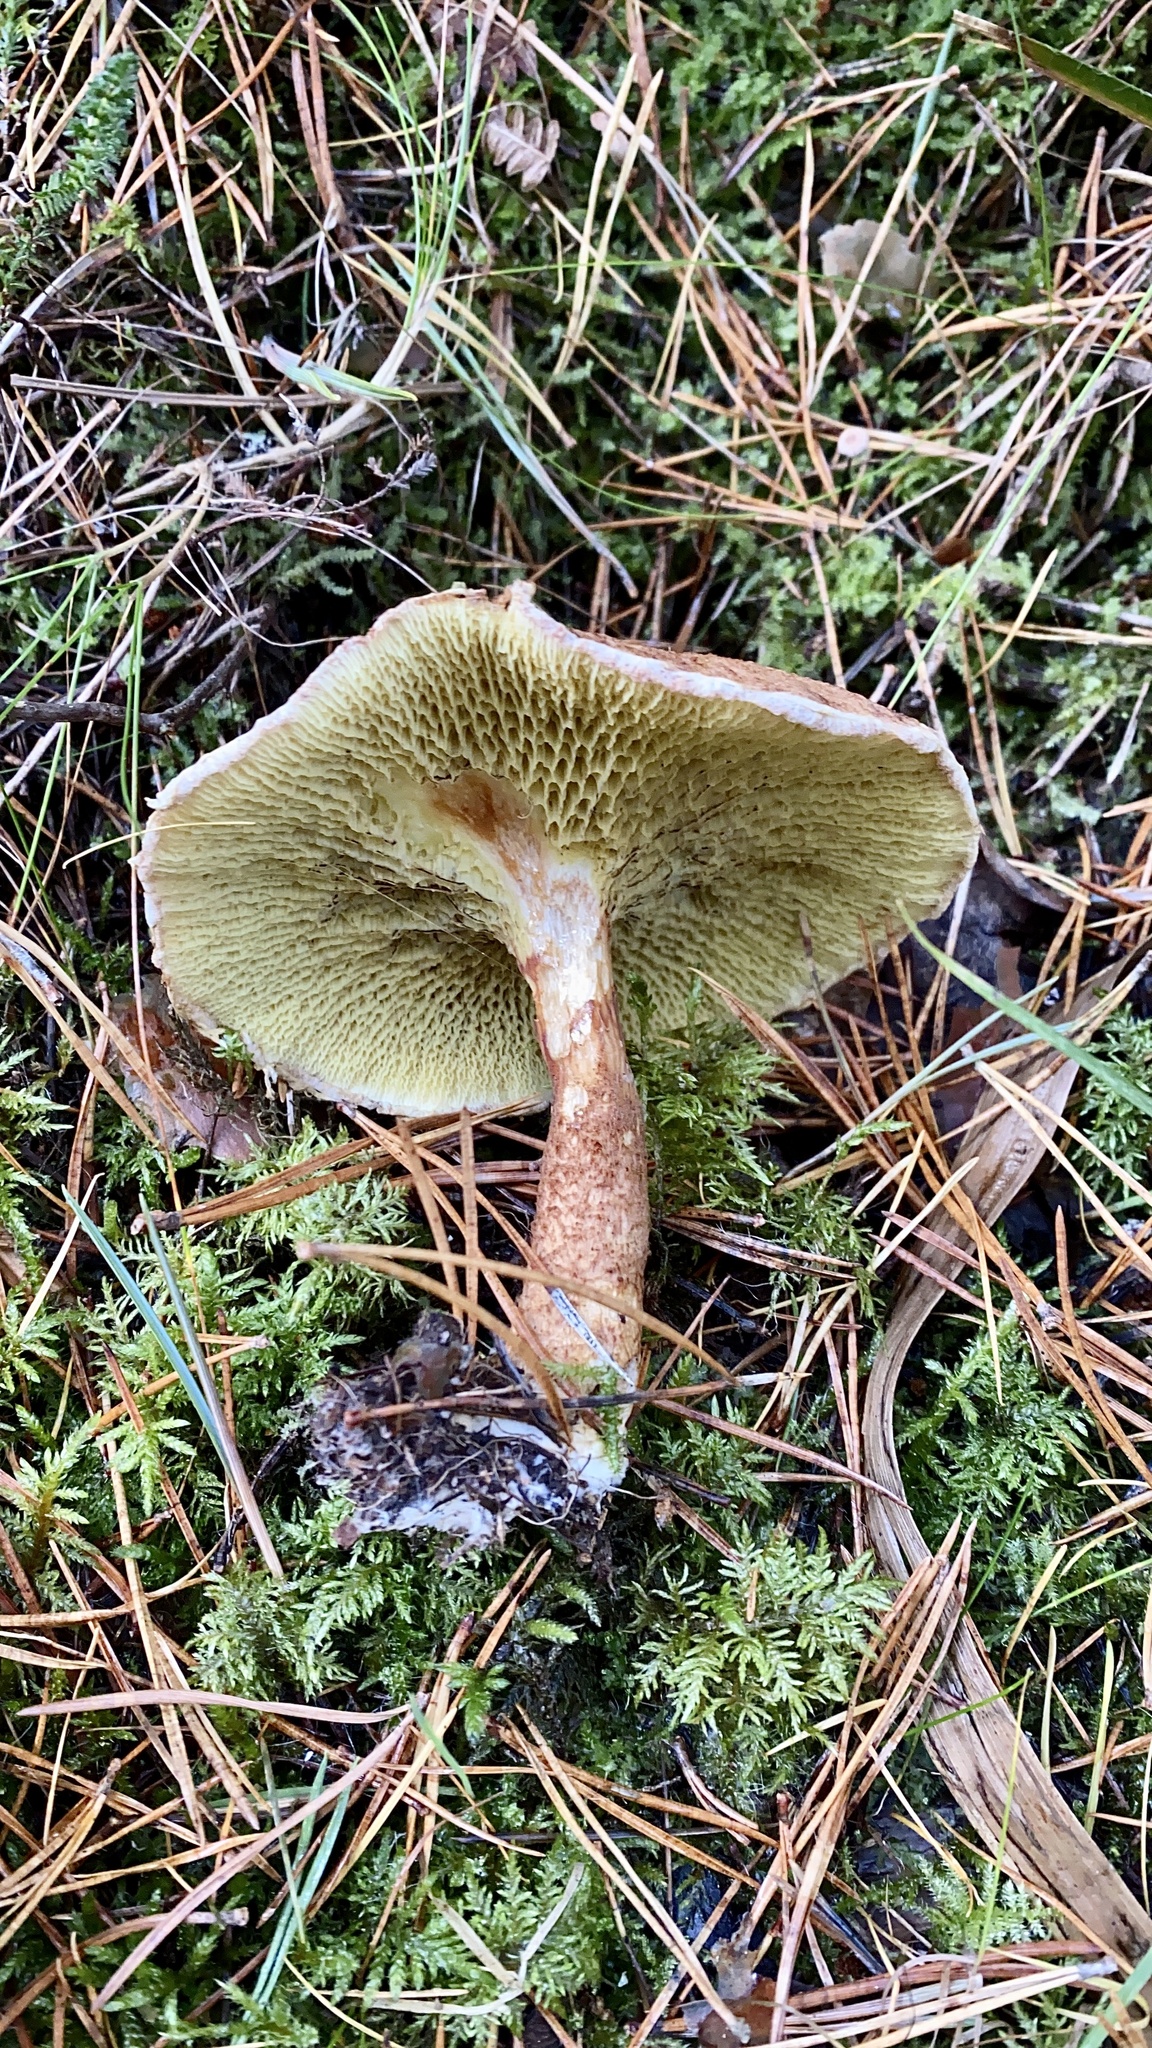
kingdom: Fungi
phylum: Basidiomycota
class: Agaricomycetes
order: Boletales
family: Suillaceae
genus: Suillus
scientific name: Suillus cavipes
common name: Hollow bolete
